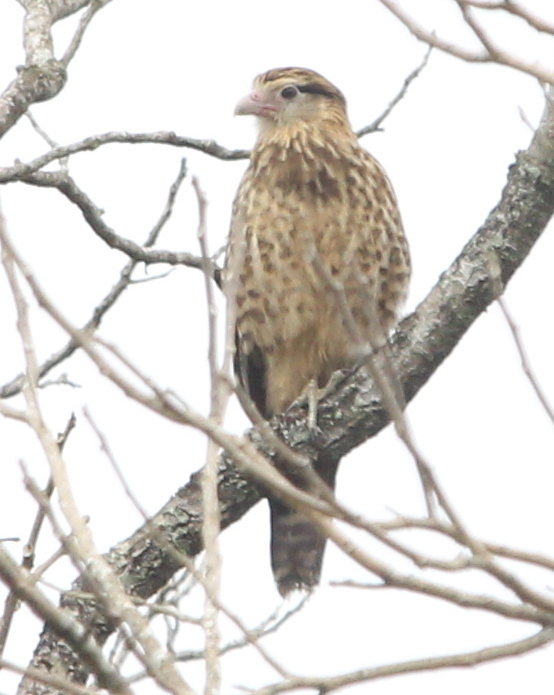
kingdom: Animalia
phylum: Chordata
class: Aves
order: Falconiformes
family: Falconidae
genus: Daptrius
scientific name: Daptrius
